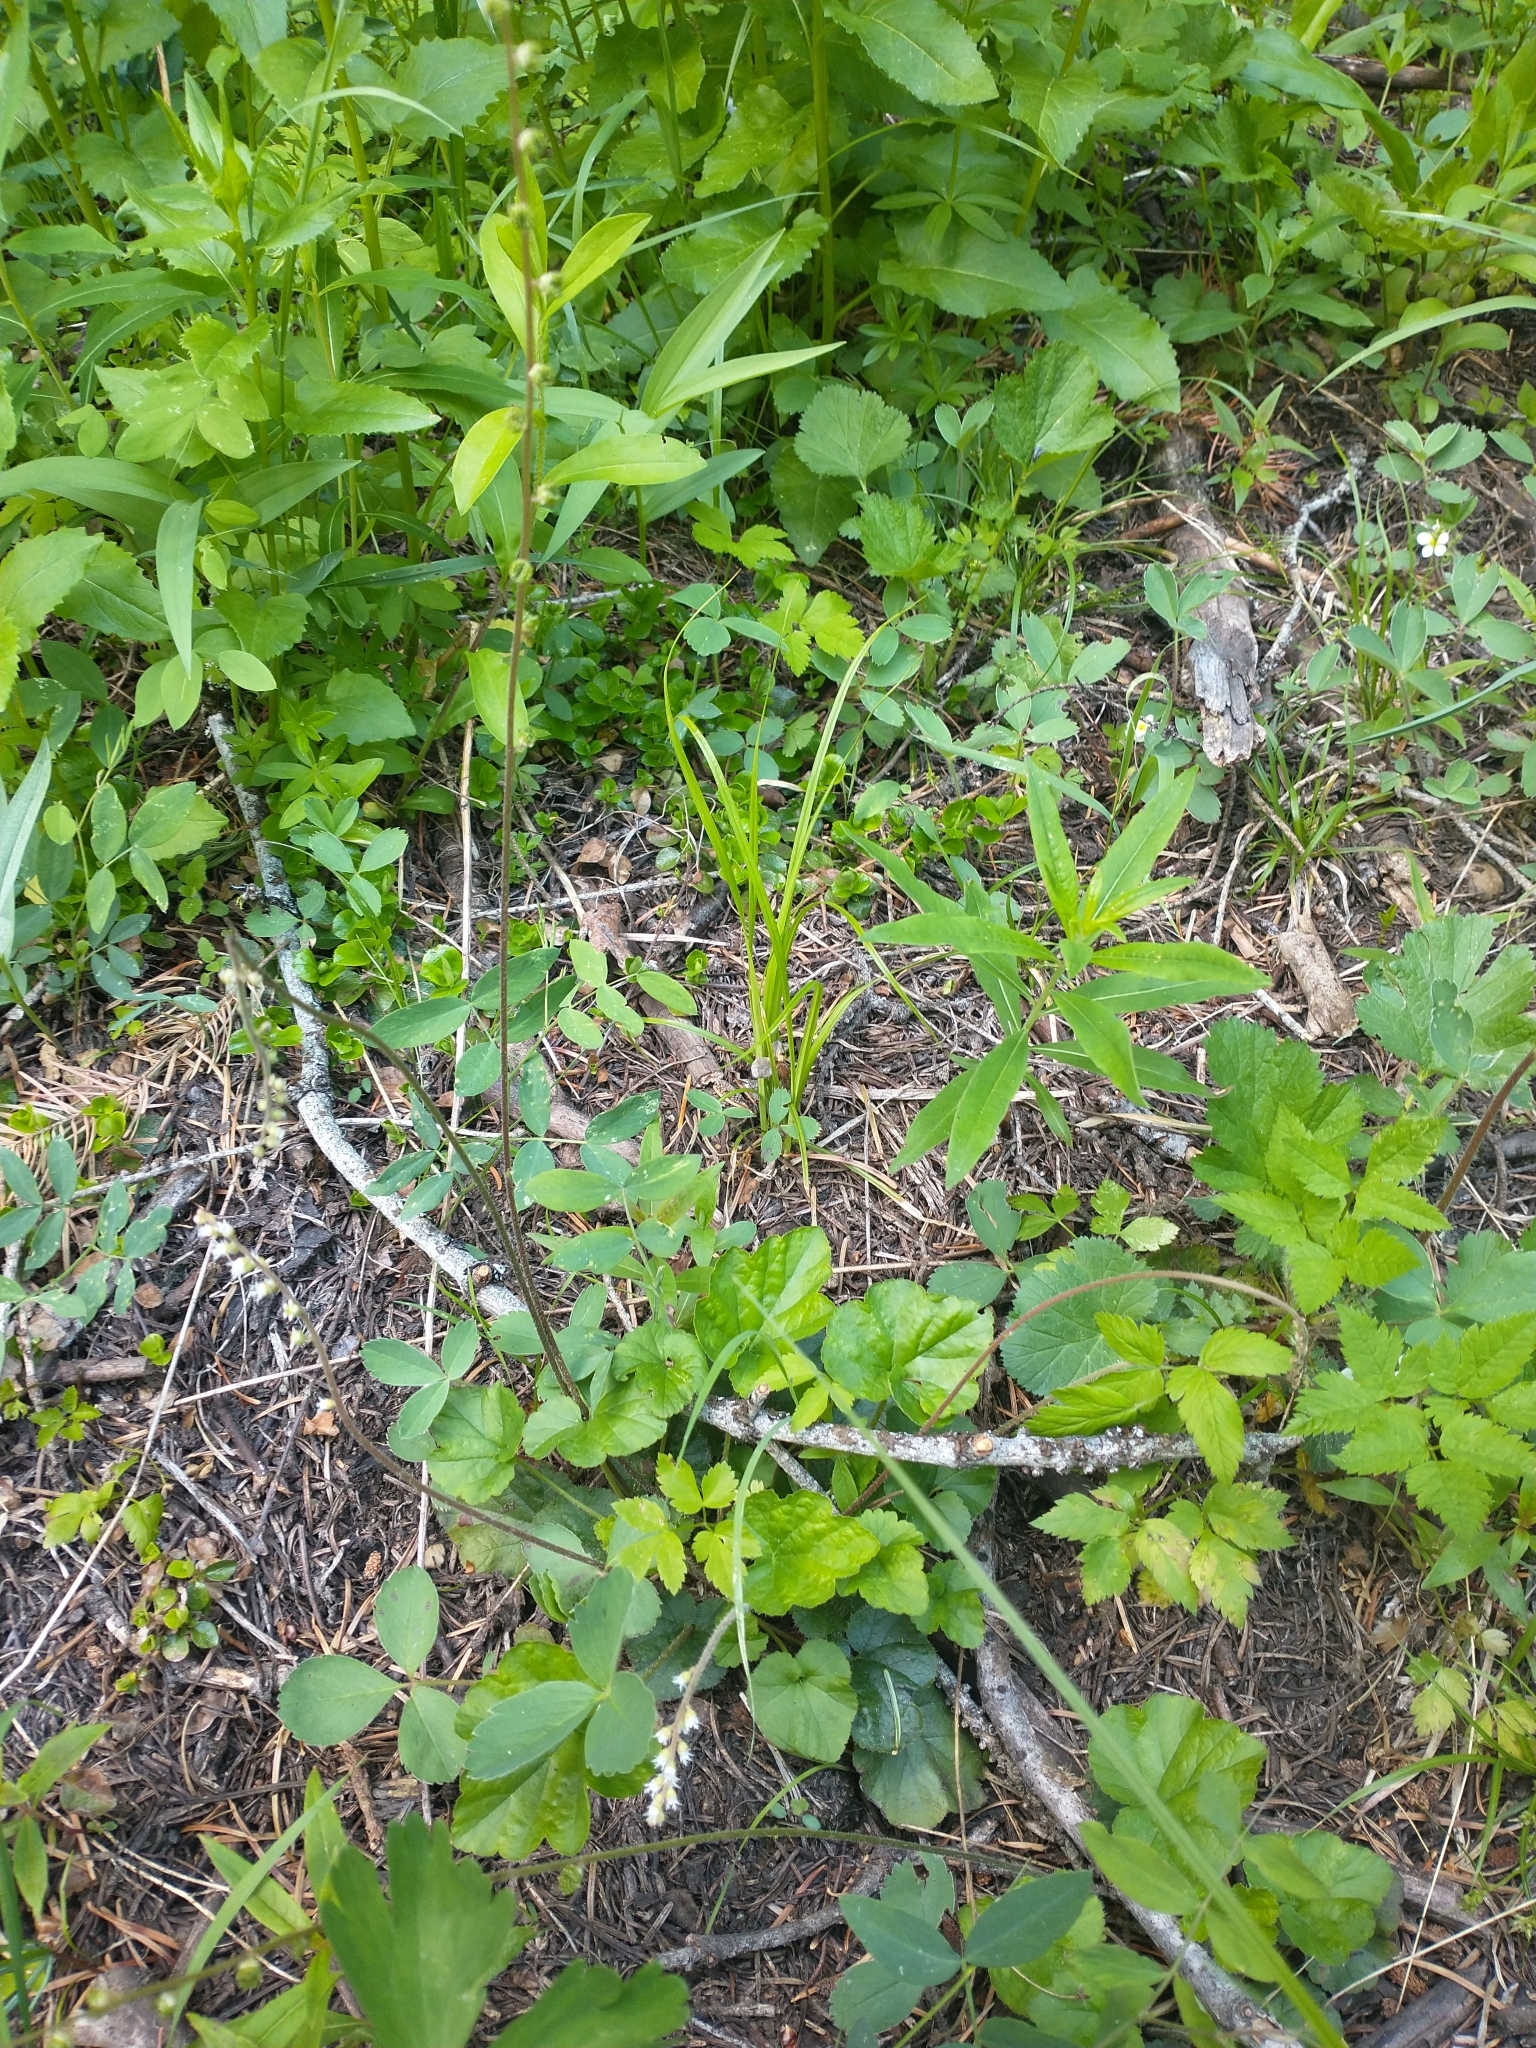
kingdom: Plantae
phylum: Tracheophyta
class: Magnoliopsida
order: Saxifragales
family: Saxifragaceae
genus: Ozomelis
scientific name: Ozomelis trifida
